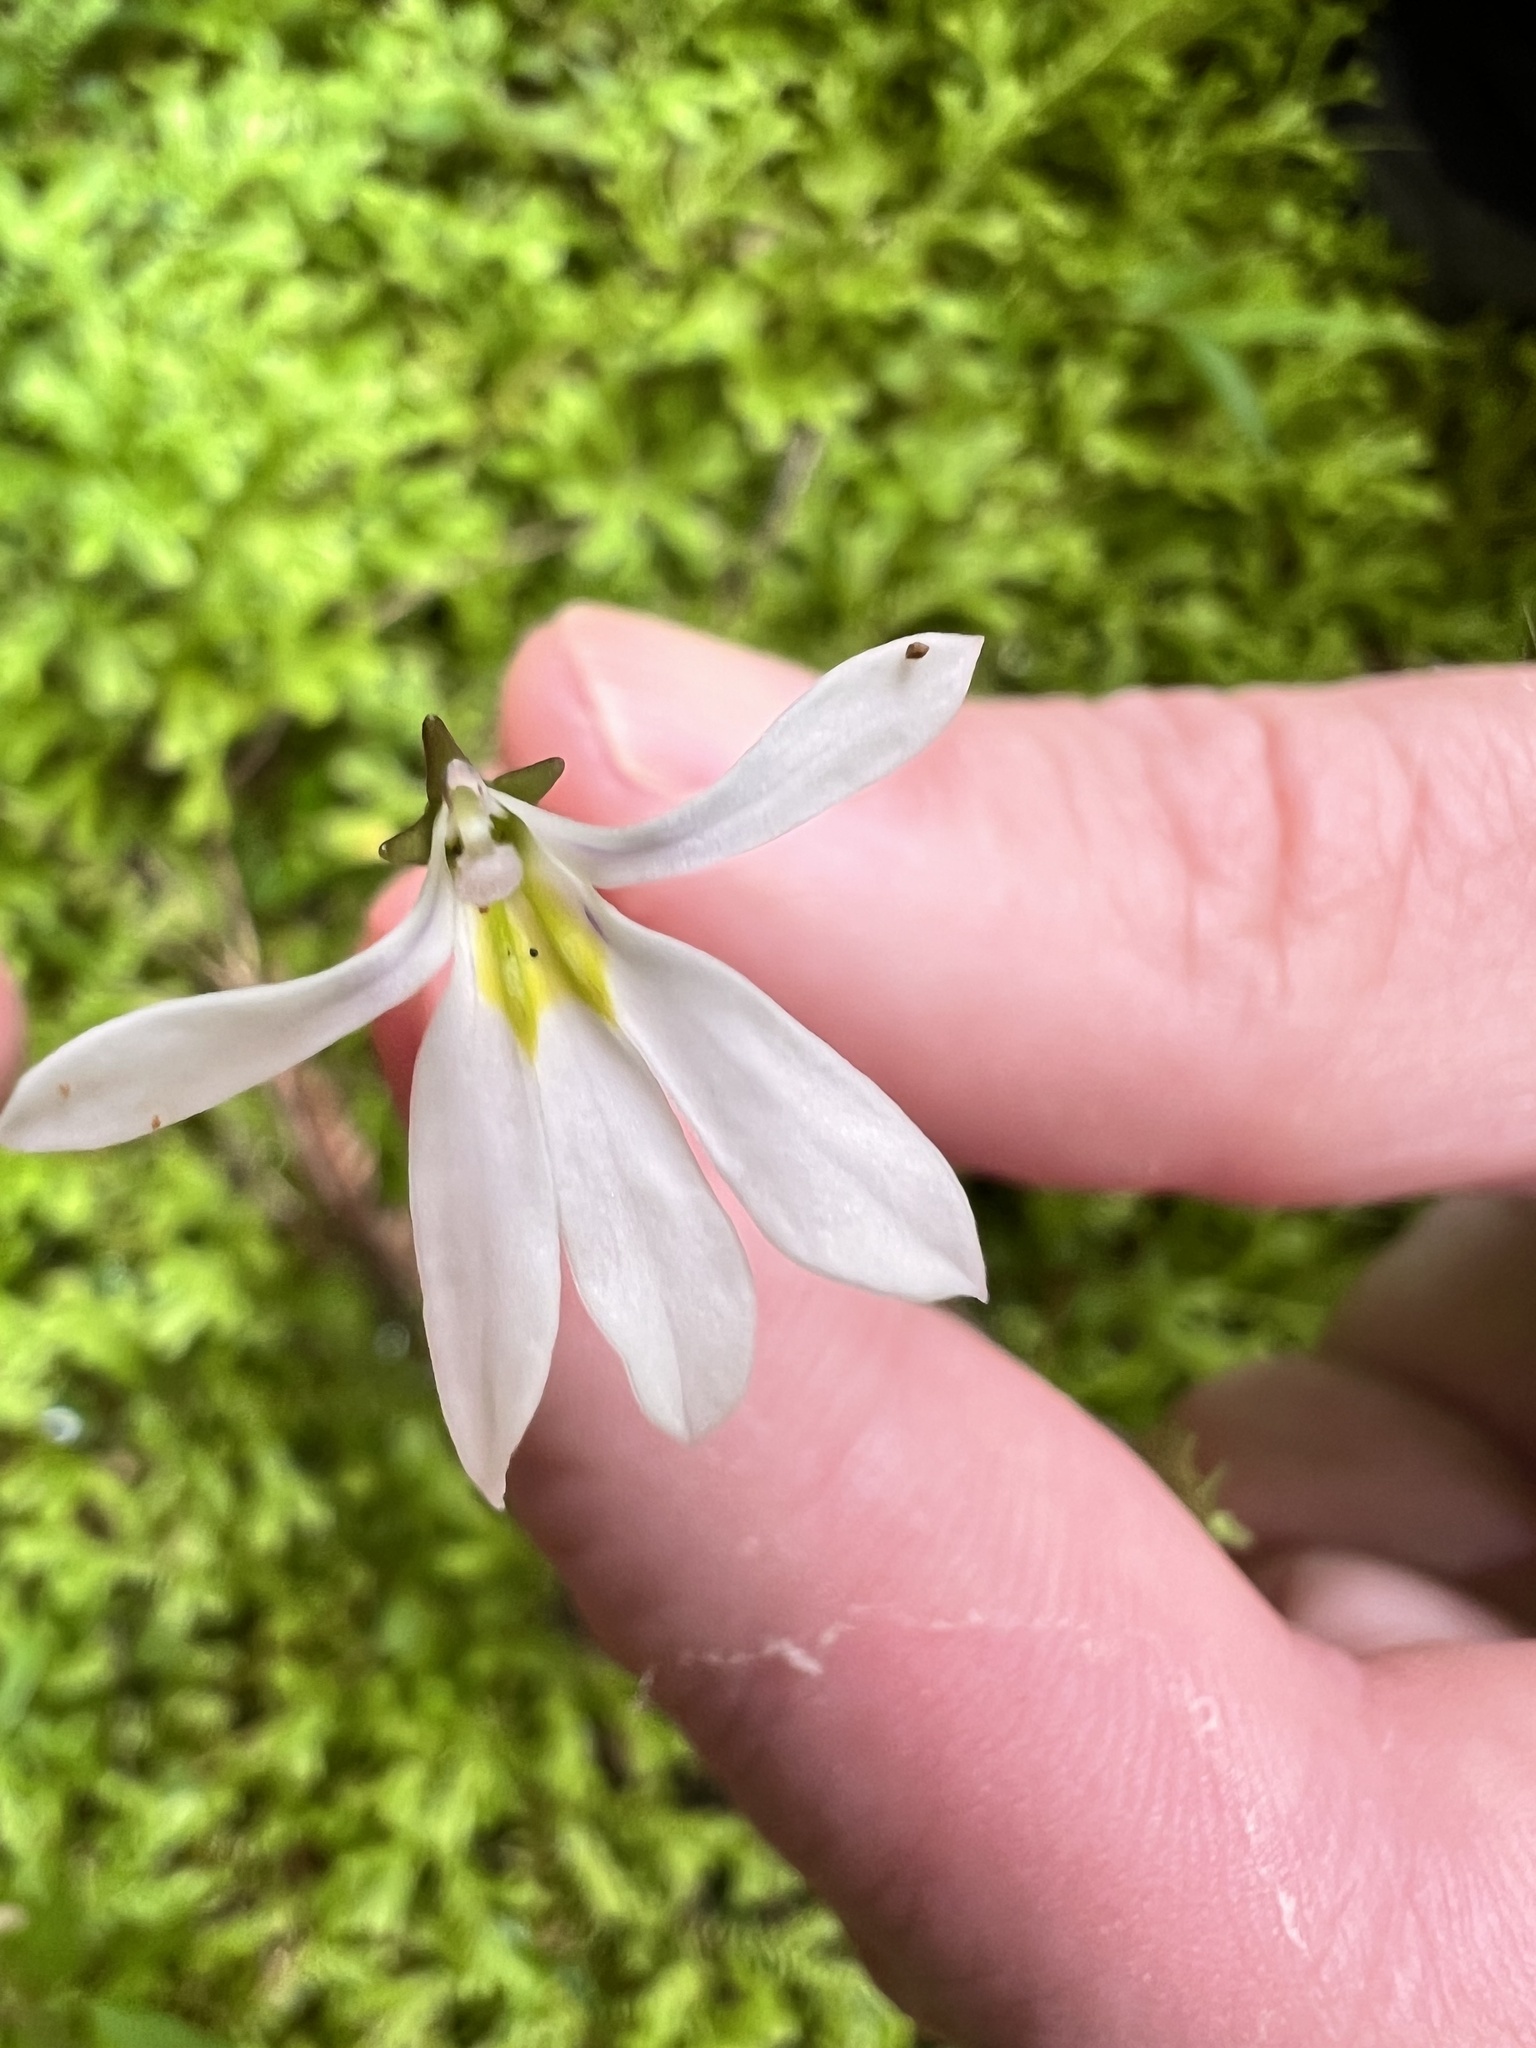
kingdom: Plantae
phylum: Tracheophyta
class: Magnoliopsida
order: Asterales
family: Campanulaceae
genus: Lobelia
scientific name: Lobelia angulata
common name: Lawn lobelia
